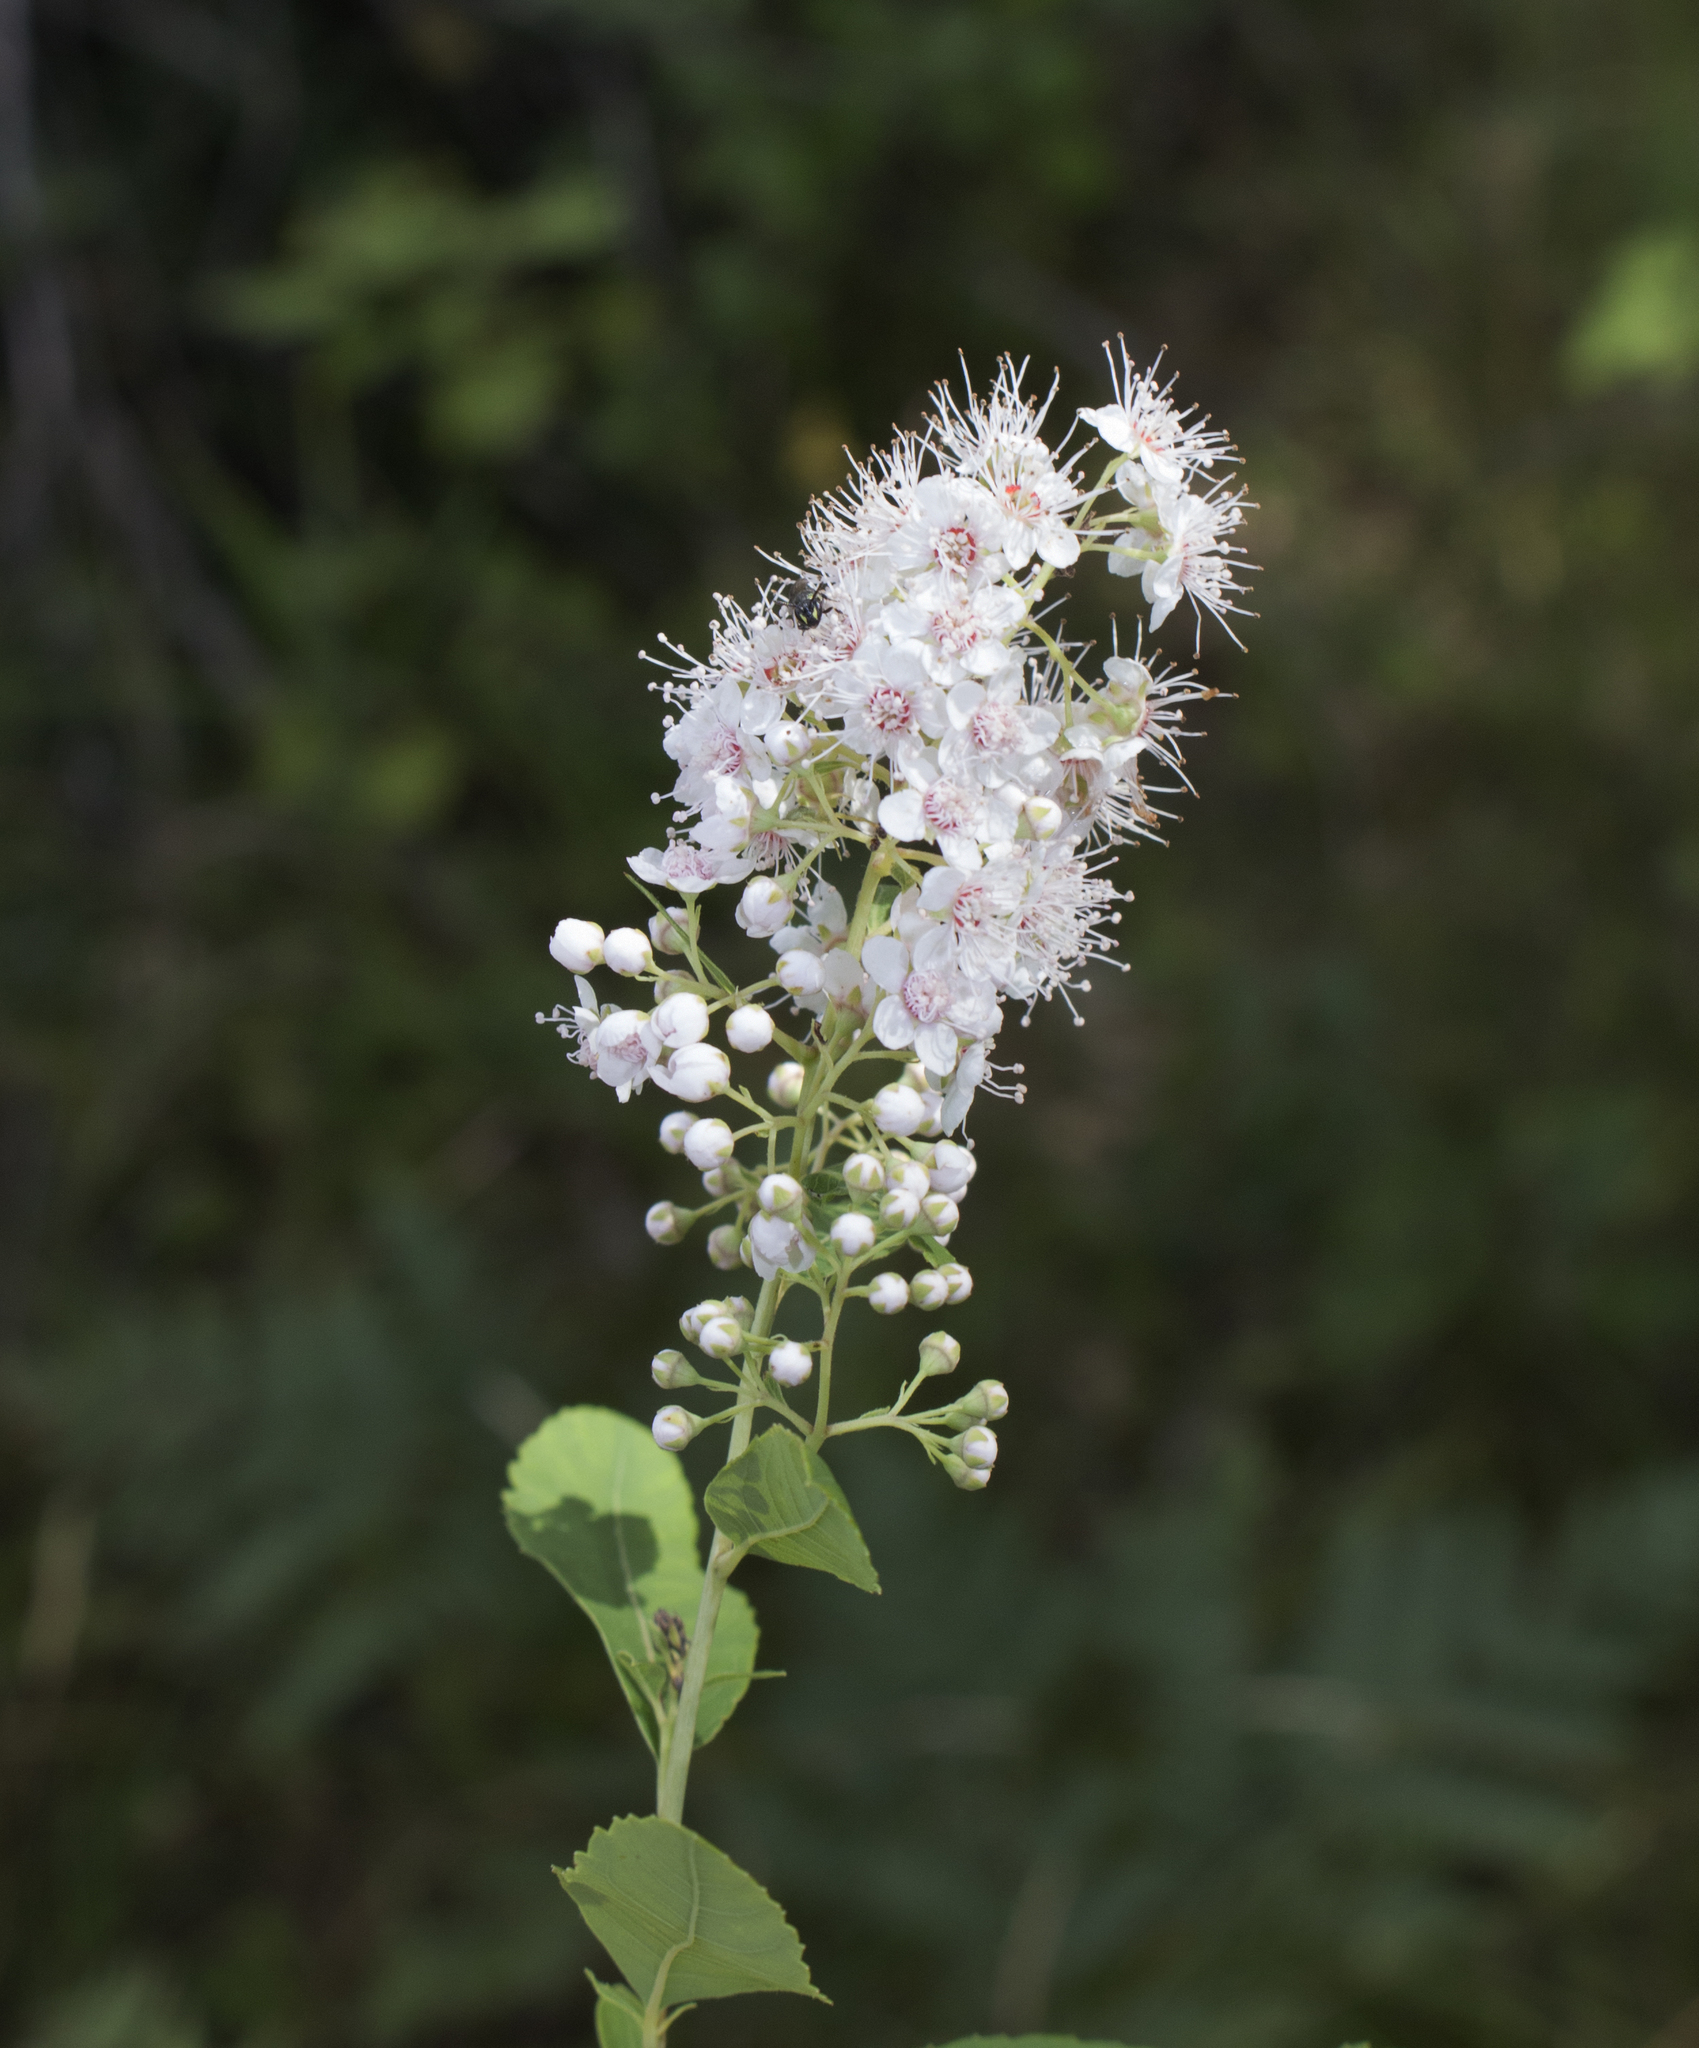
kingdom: Plantae
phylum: Tracheophyta
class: Magnoliopsida
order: Rosales
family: Rosaceae
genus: Spiraea
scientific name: Spiraea alba
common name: Pale bridewort
